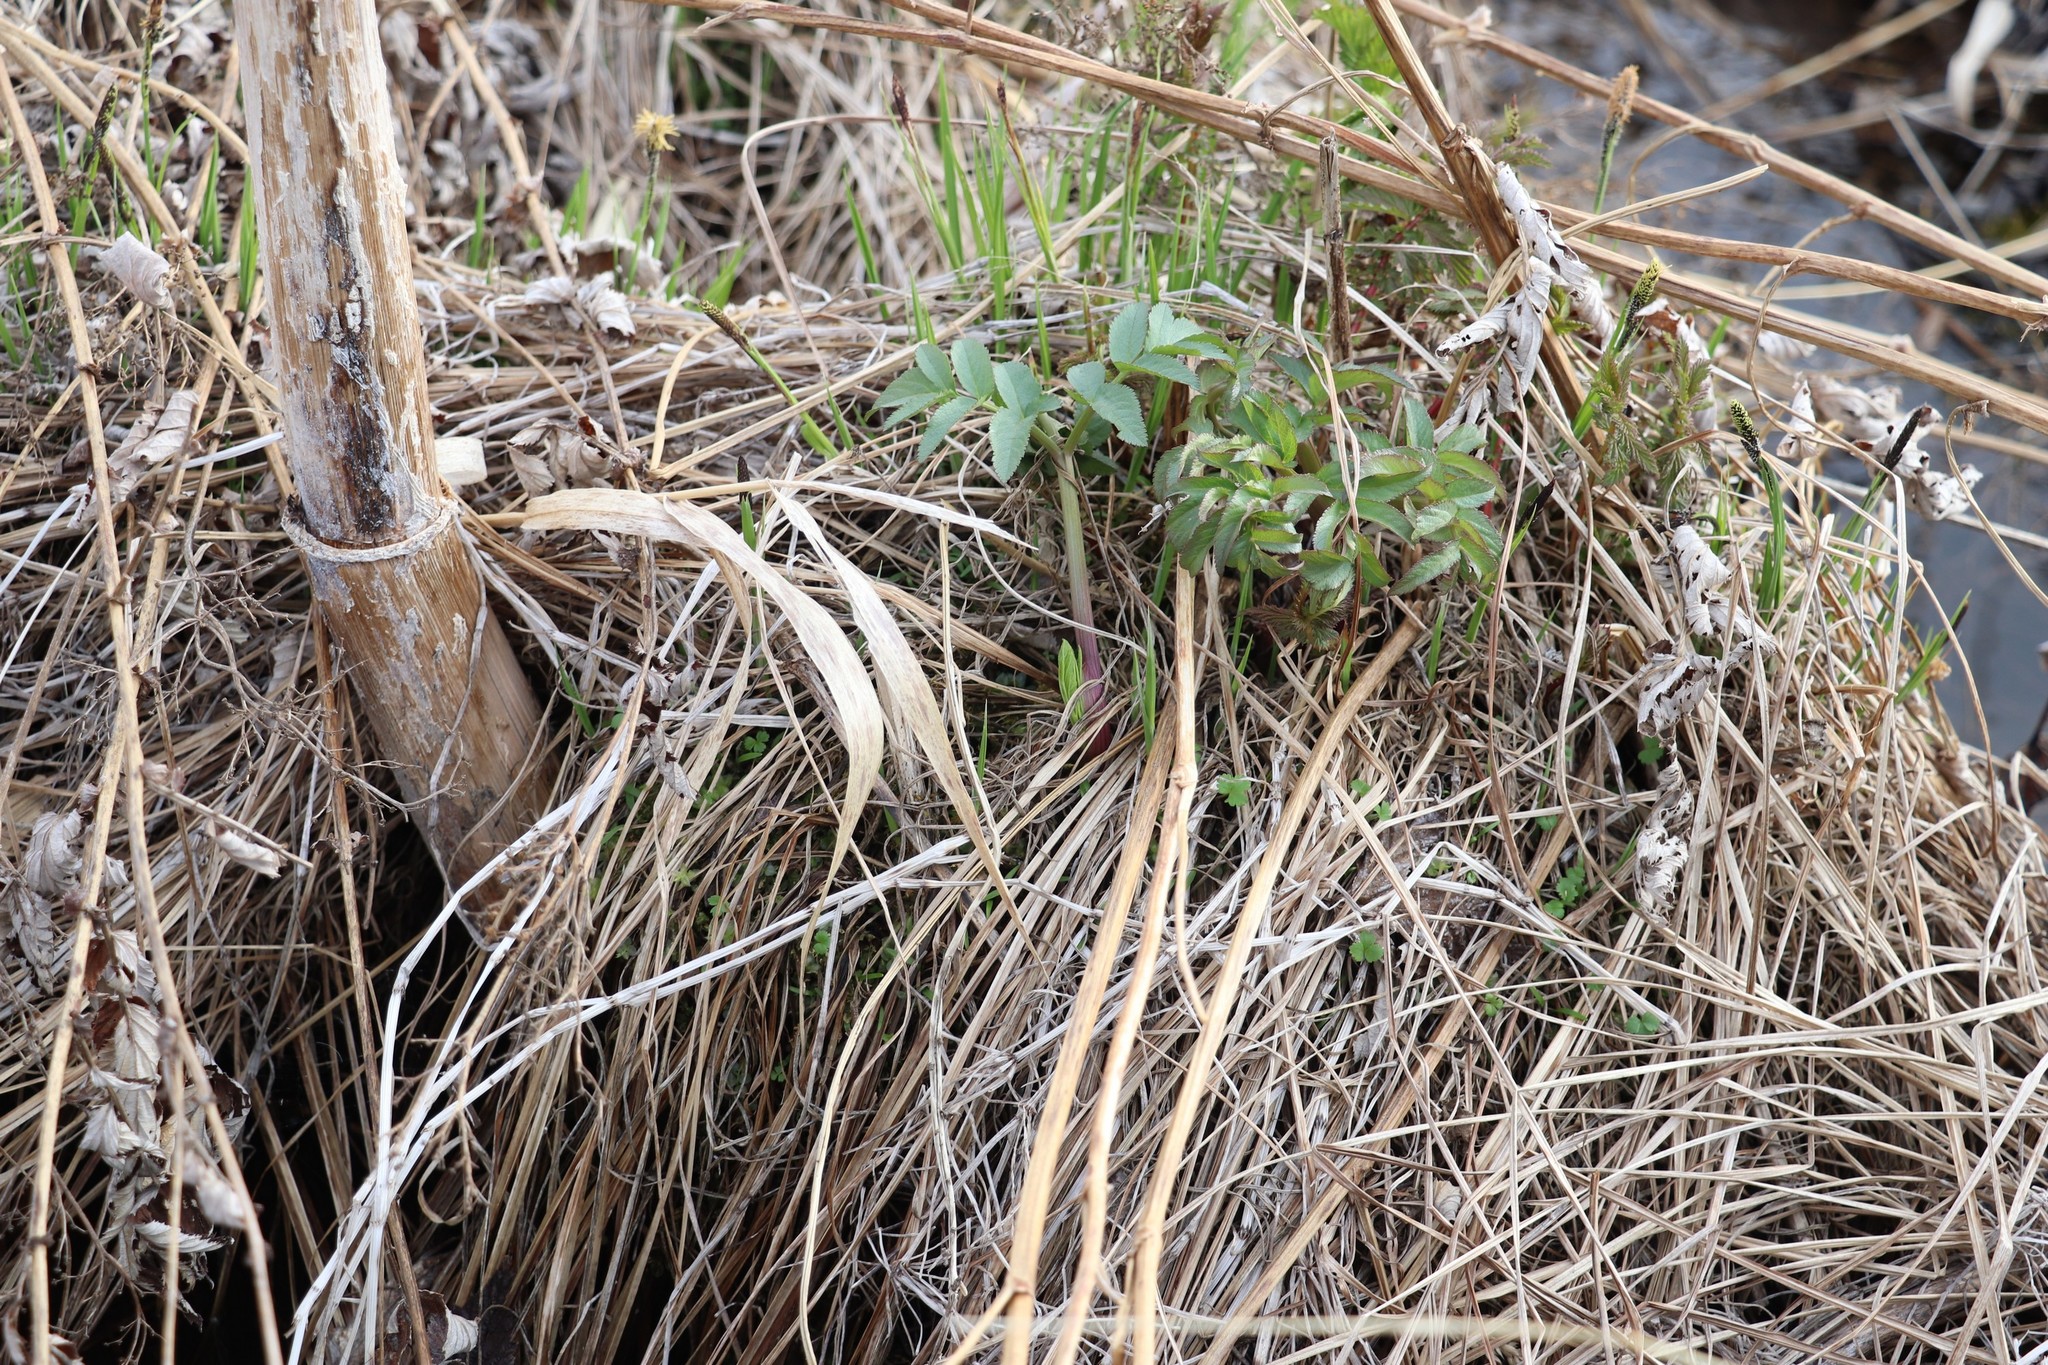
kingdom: Plantae
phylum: Tracheophyta
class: Magnoliopsida
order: Apiales
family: Apiaceae
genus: Angelica
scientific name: Angelica decurrens
